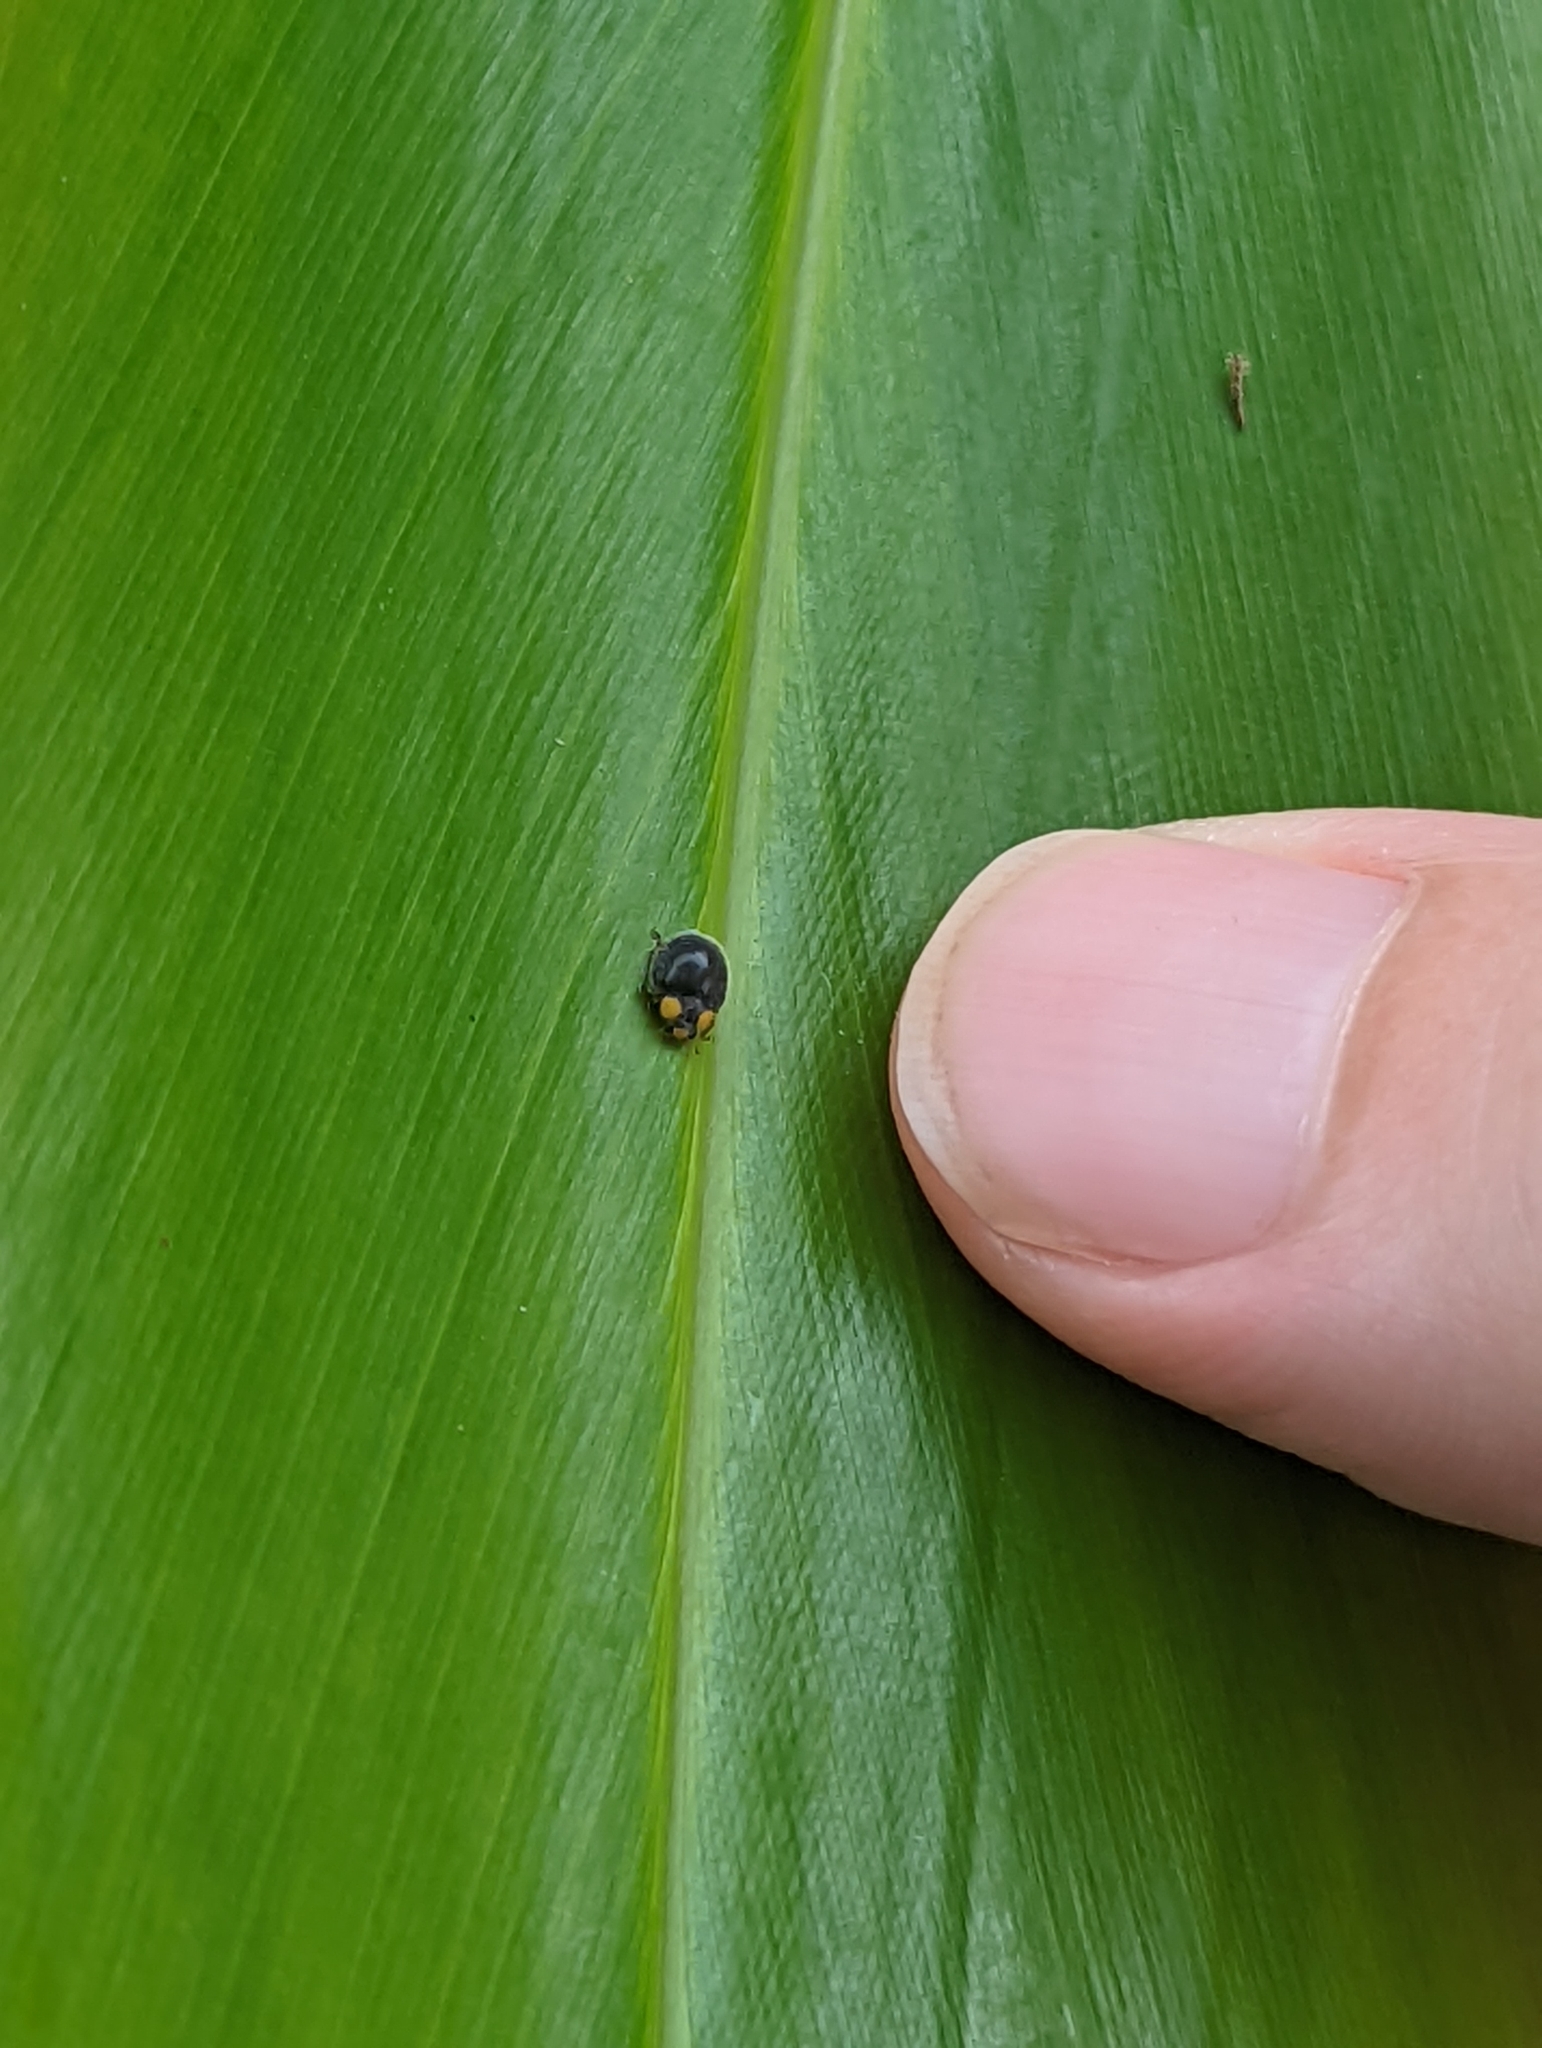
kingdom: Animalia
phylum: Arthropoda
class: Insecta
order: Coleoptera
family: Coccinellidae
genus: Scymnodes
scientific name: Scymnodes lividigaster
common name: Yellowshouldered lady beetle
